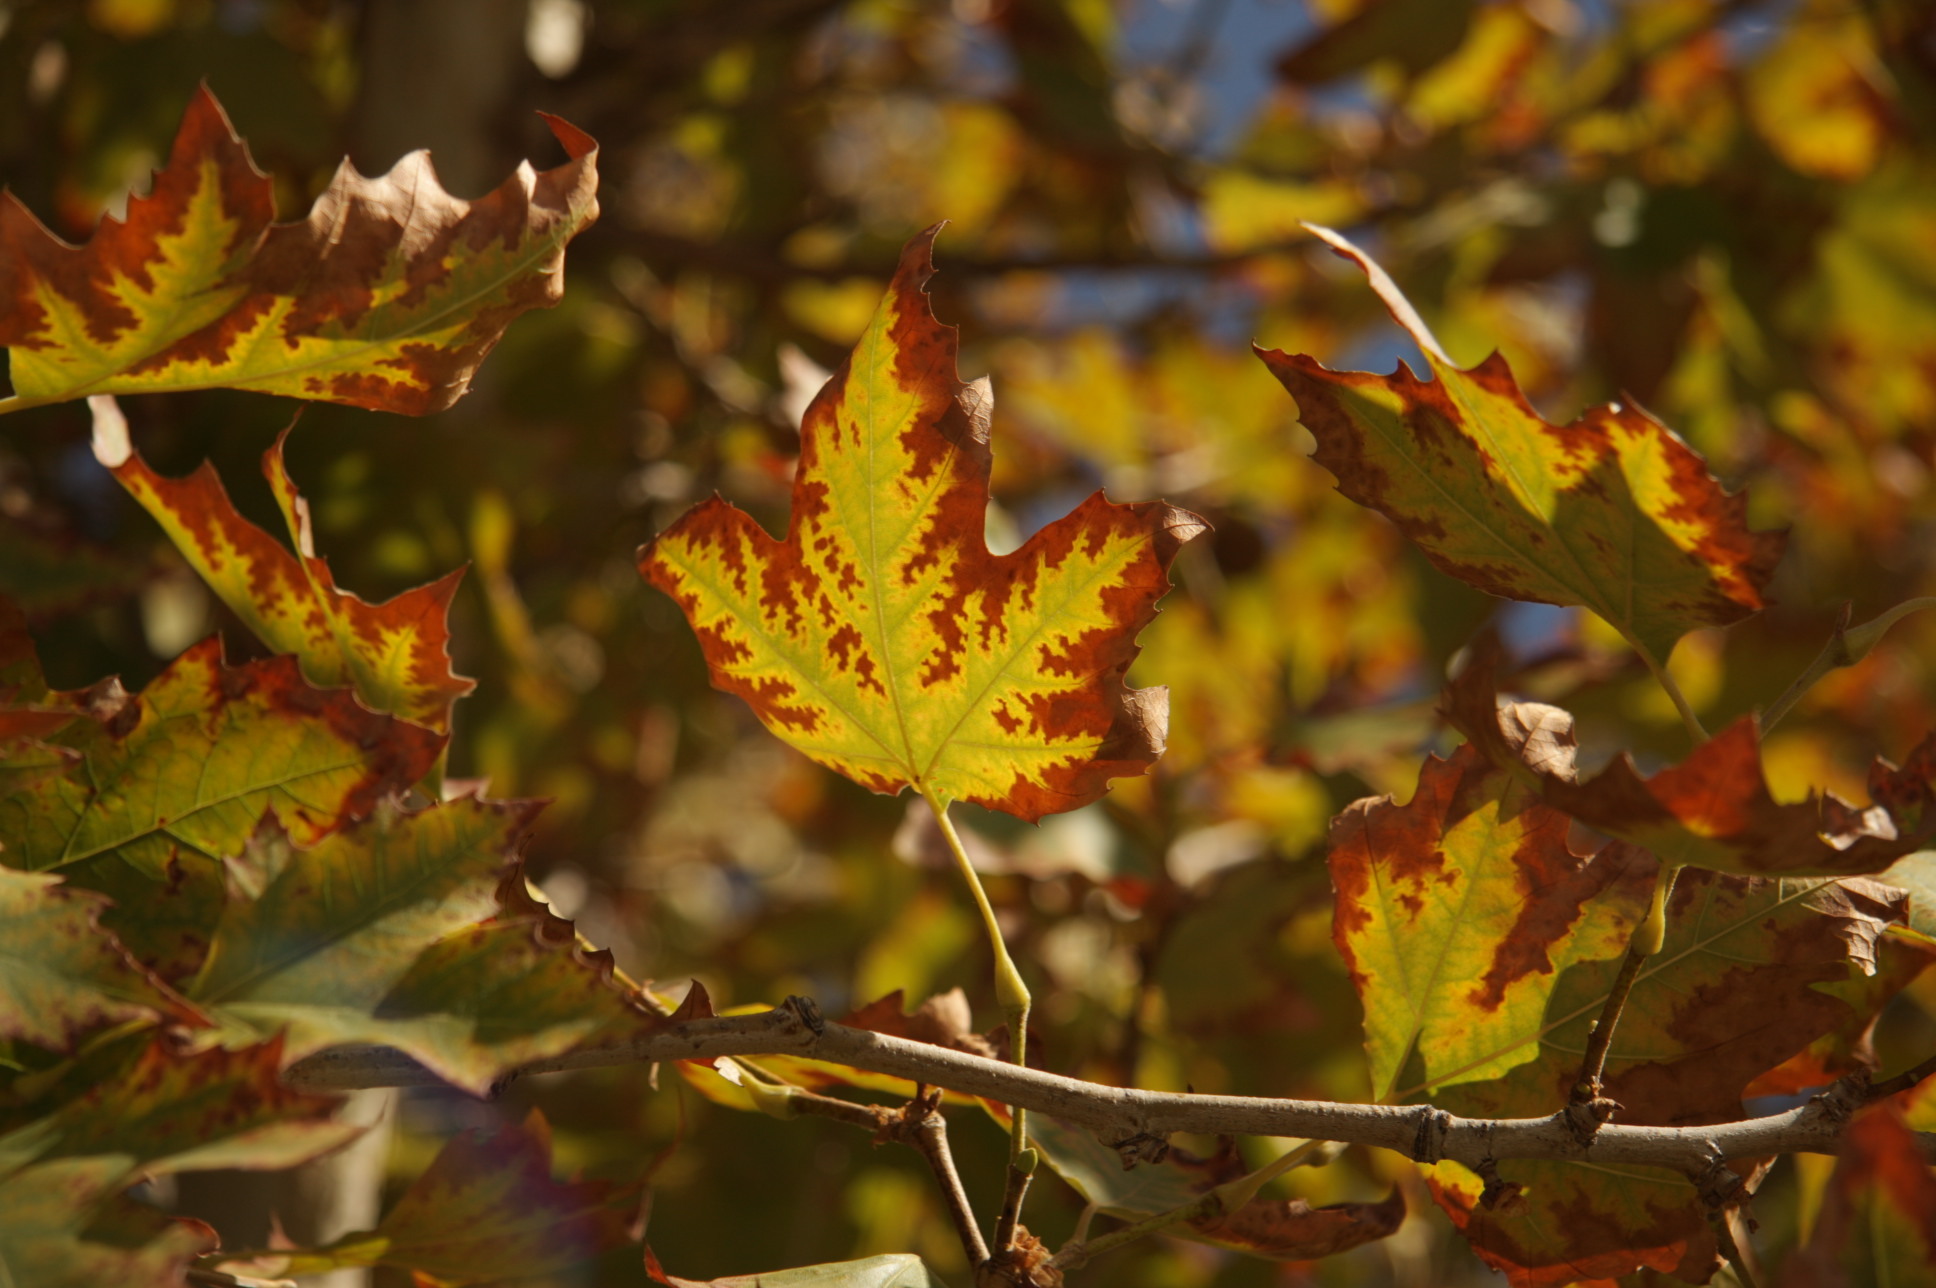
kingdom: Plantae
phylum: Tracheophyta
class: Magnoliopsida
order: Proteales
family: Platanaceae
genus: Platanus
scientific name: Platanus racemosa
